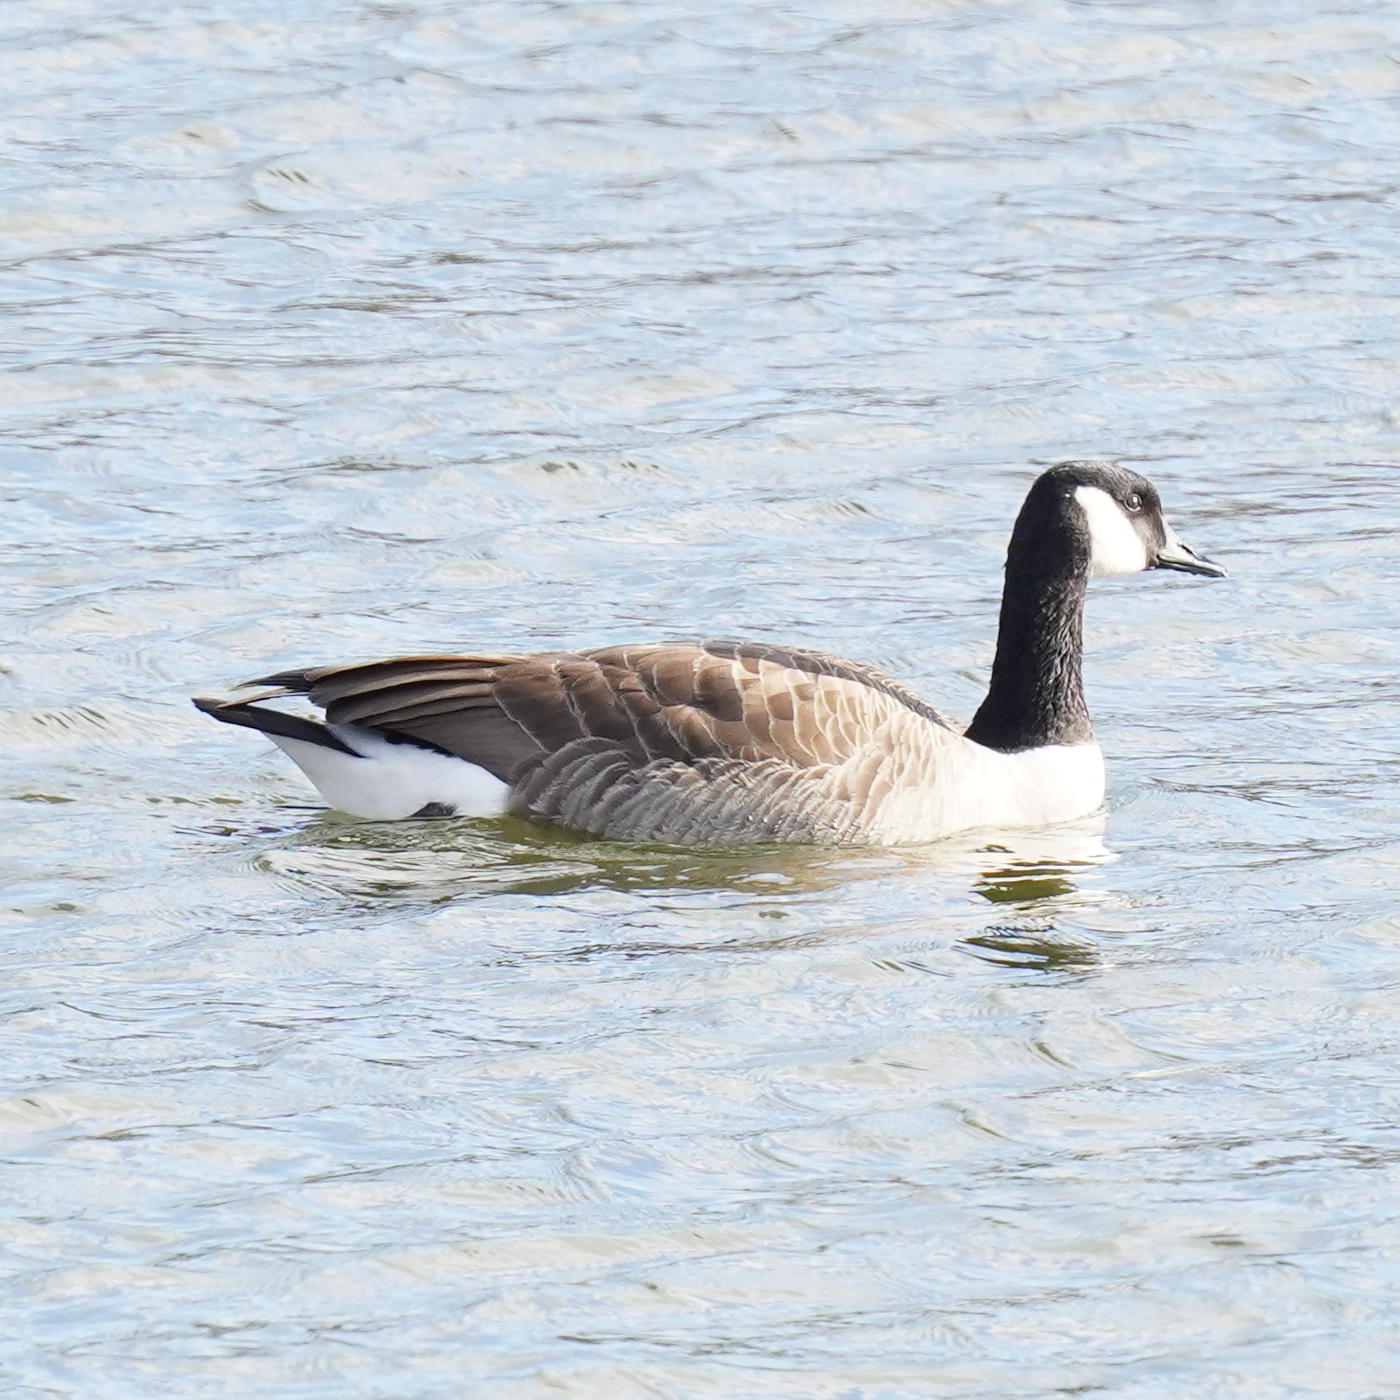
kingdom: Animalia
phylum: Chordata
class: Aves
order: Anseriformes
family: Anatidae
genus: Branta
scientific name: Branta canadensis
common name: Canada goose
